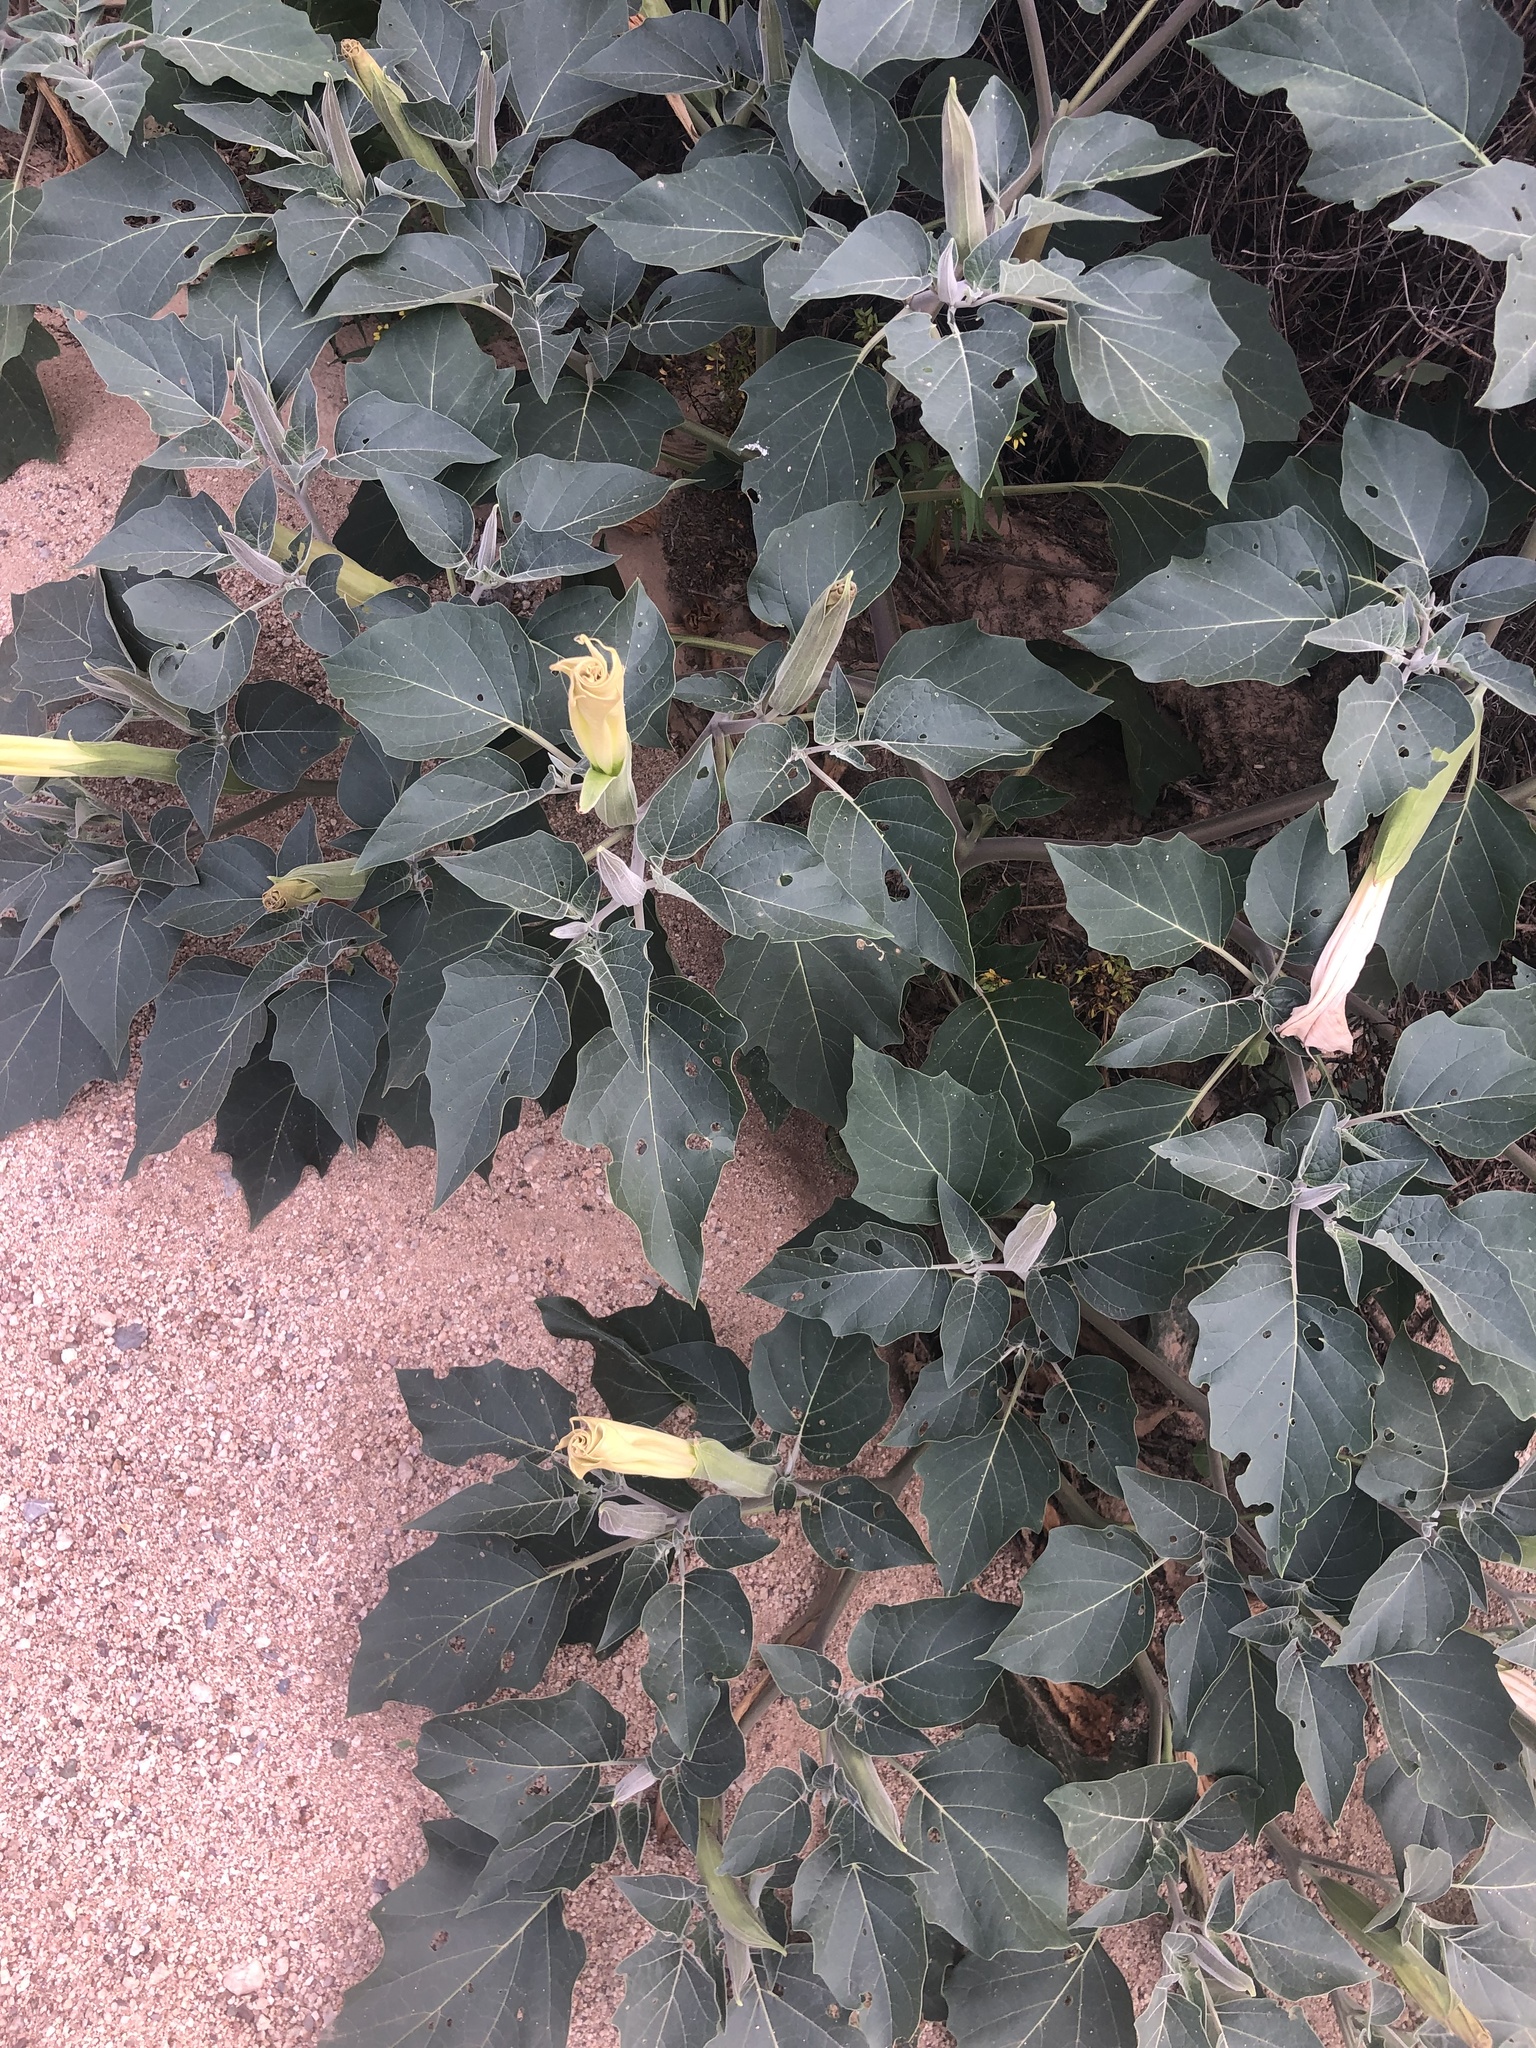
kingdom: Plantae
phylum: Tracheophyta
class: Magnoliopsida
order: Solanales
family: Solanaceae
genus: Datura
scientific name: Datura wrightii
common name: Sacred thorn-apple
